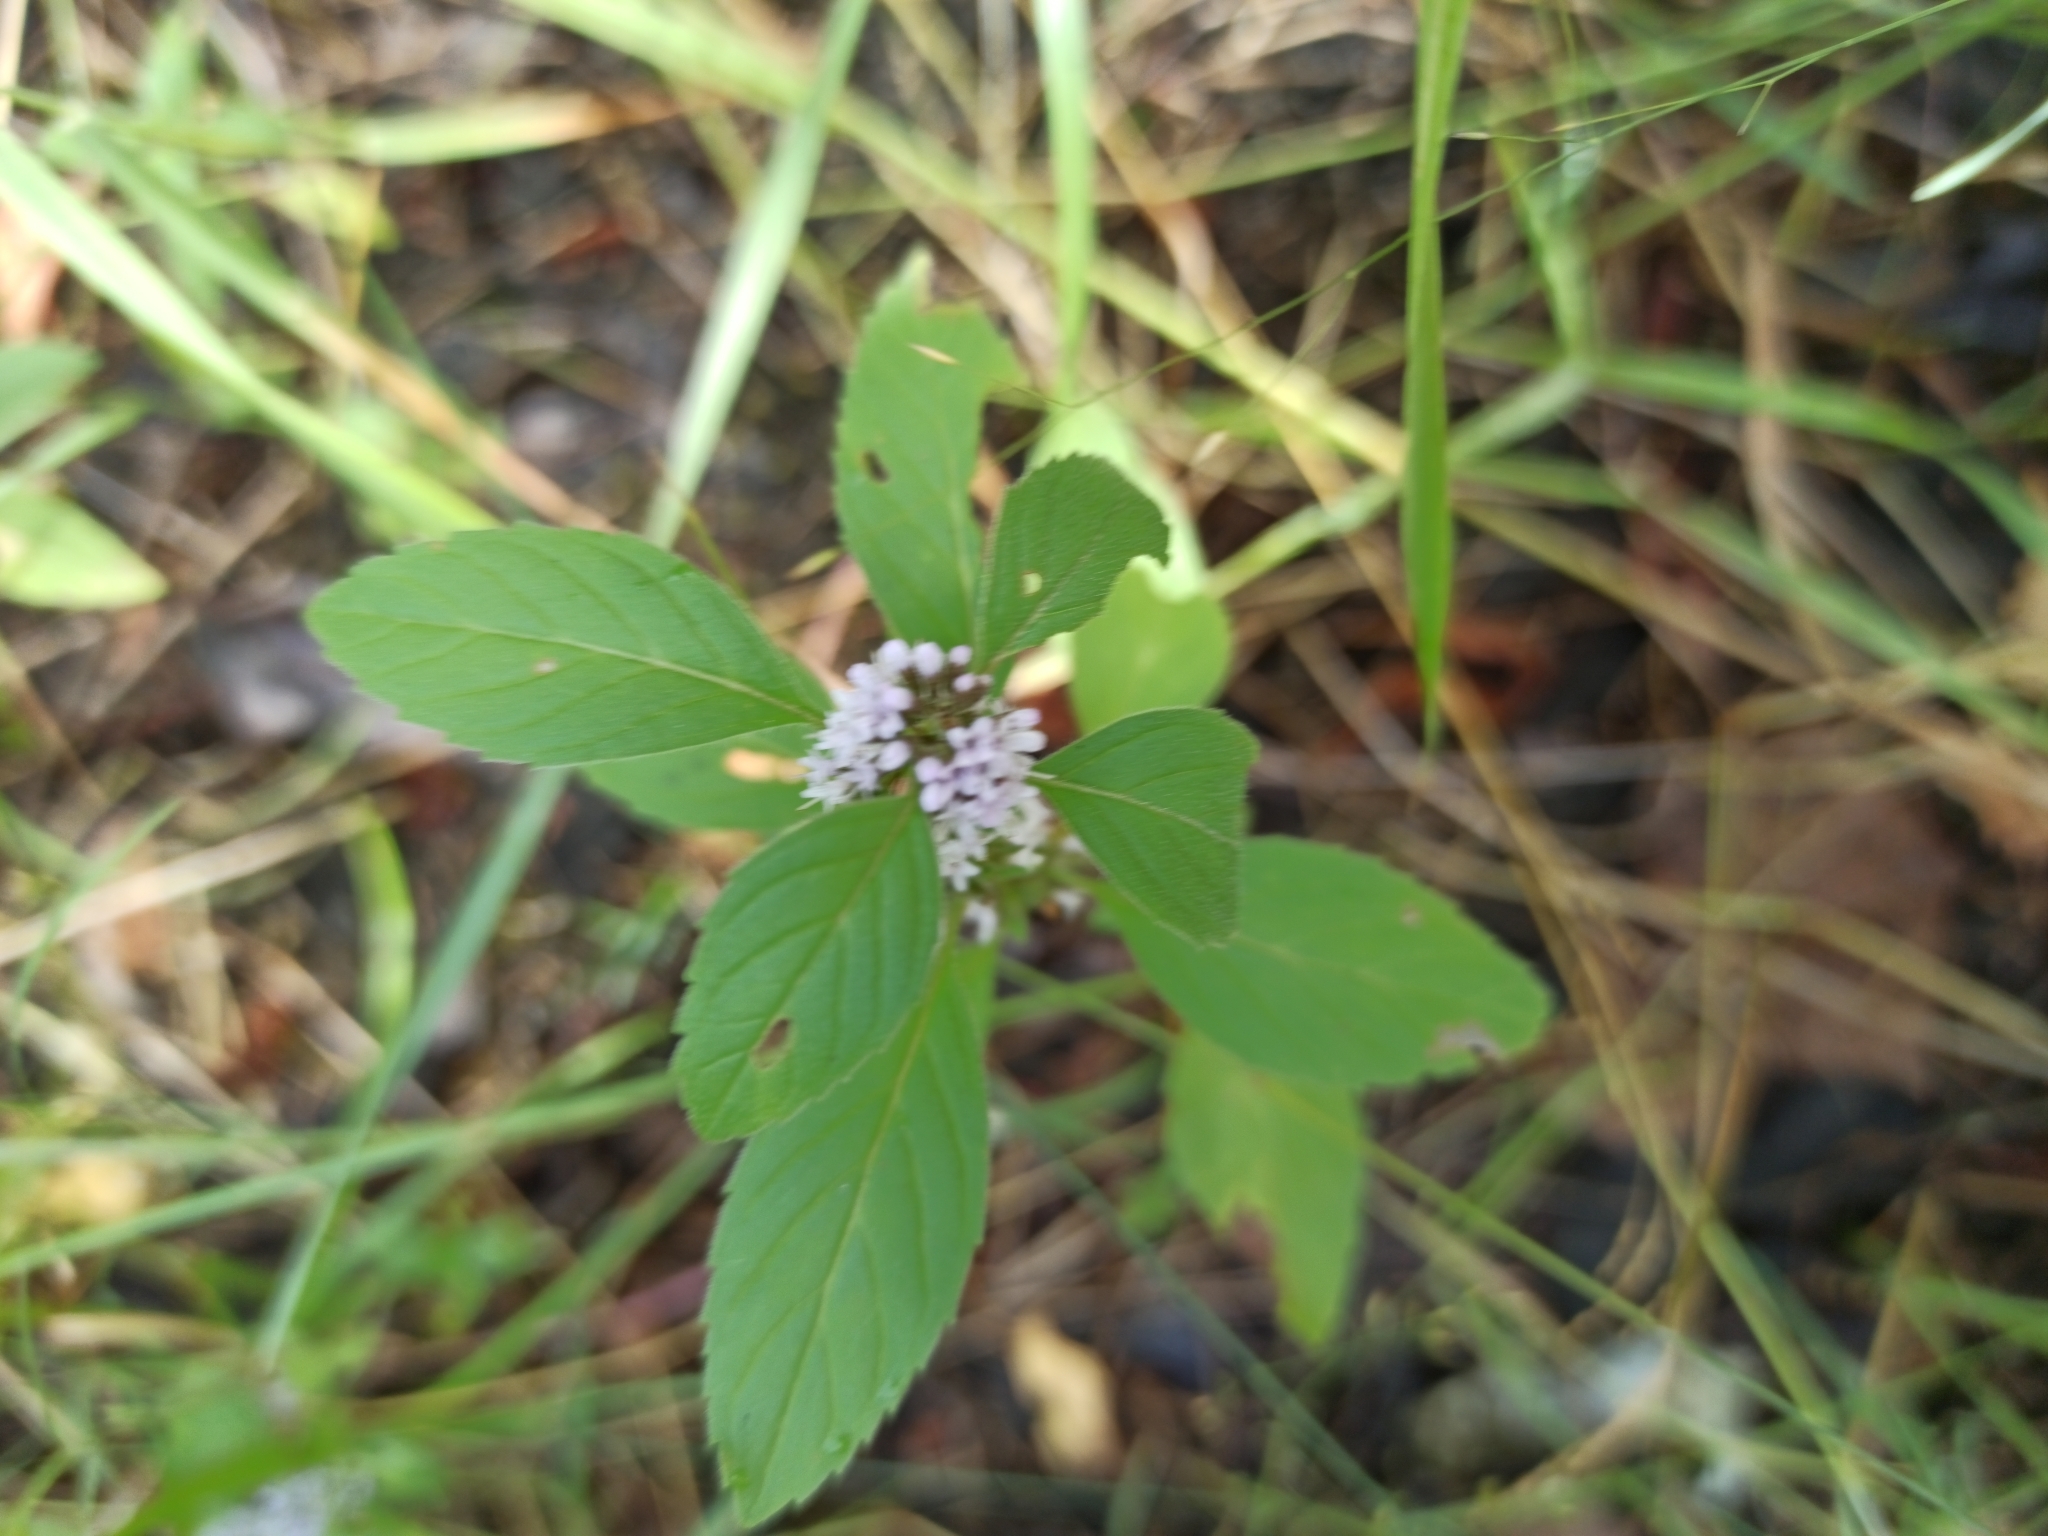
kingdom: Plantae
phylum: Tracheophyta
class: Magnoliopsida
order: Lamiales
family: Lamiaceae
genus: Mentha
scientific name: Mentha arvensis
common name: Corn mint
